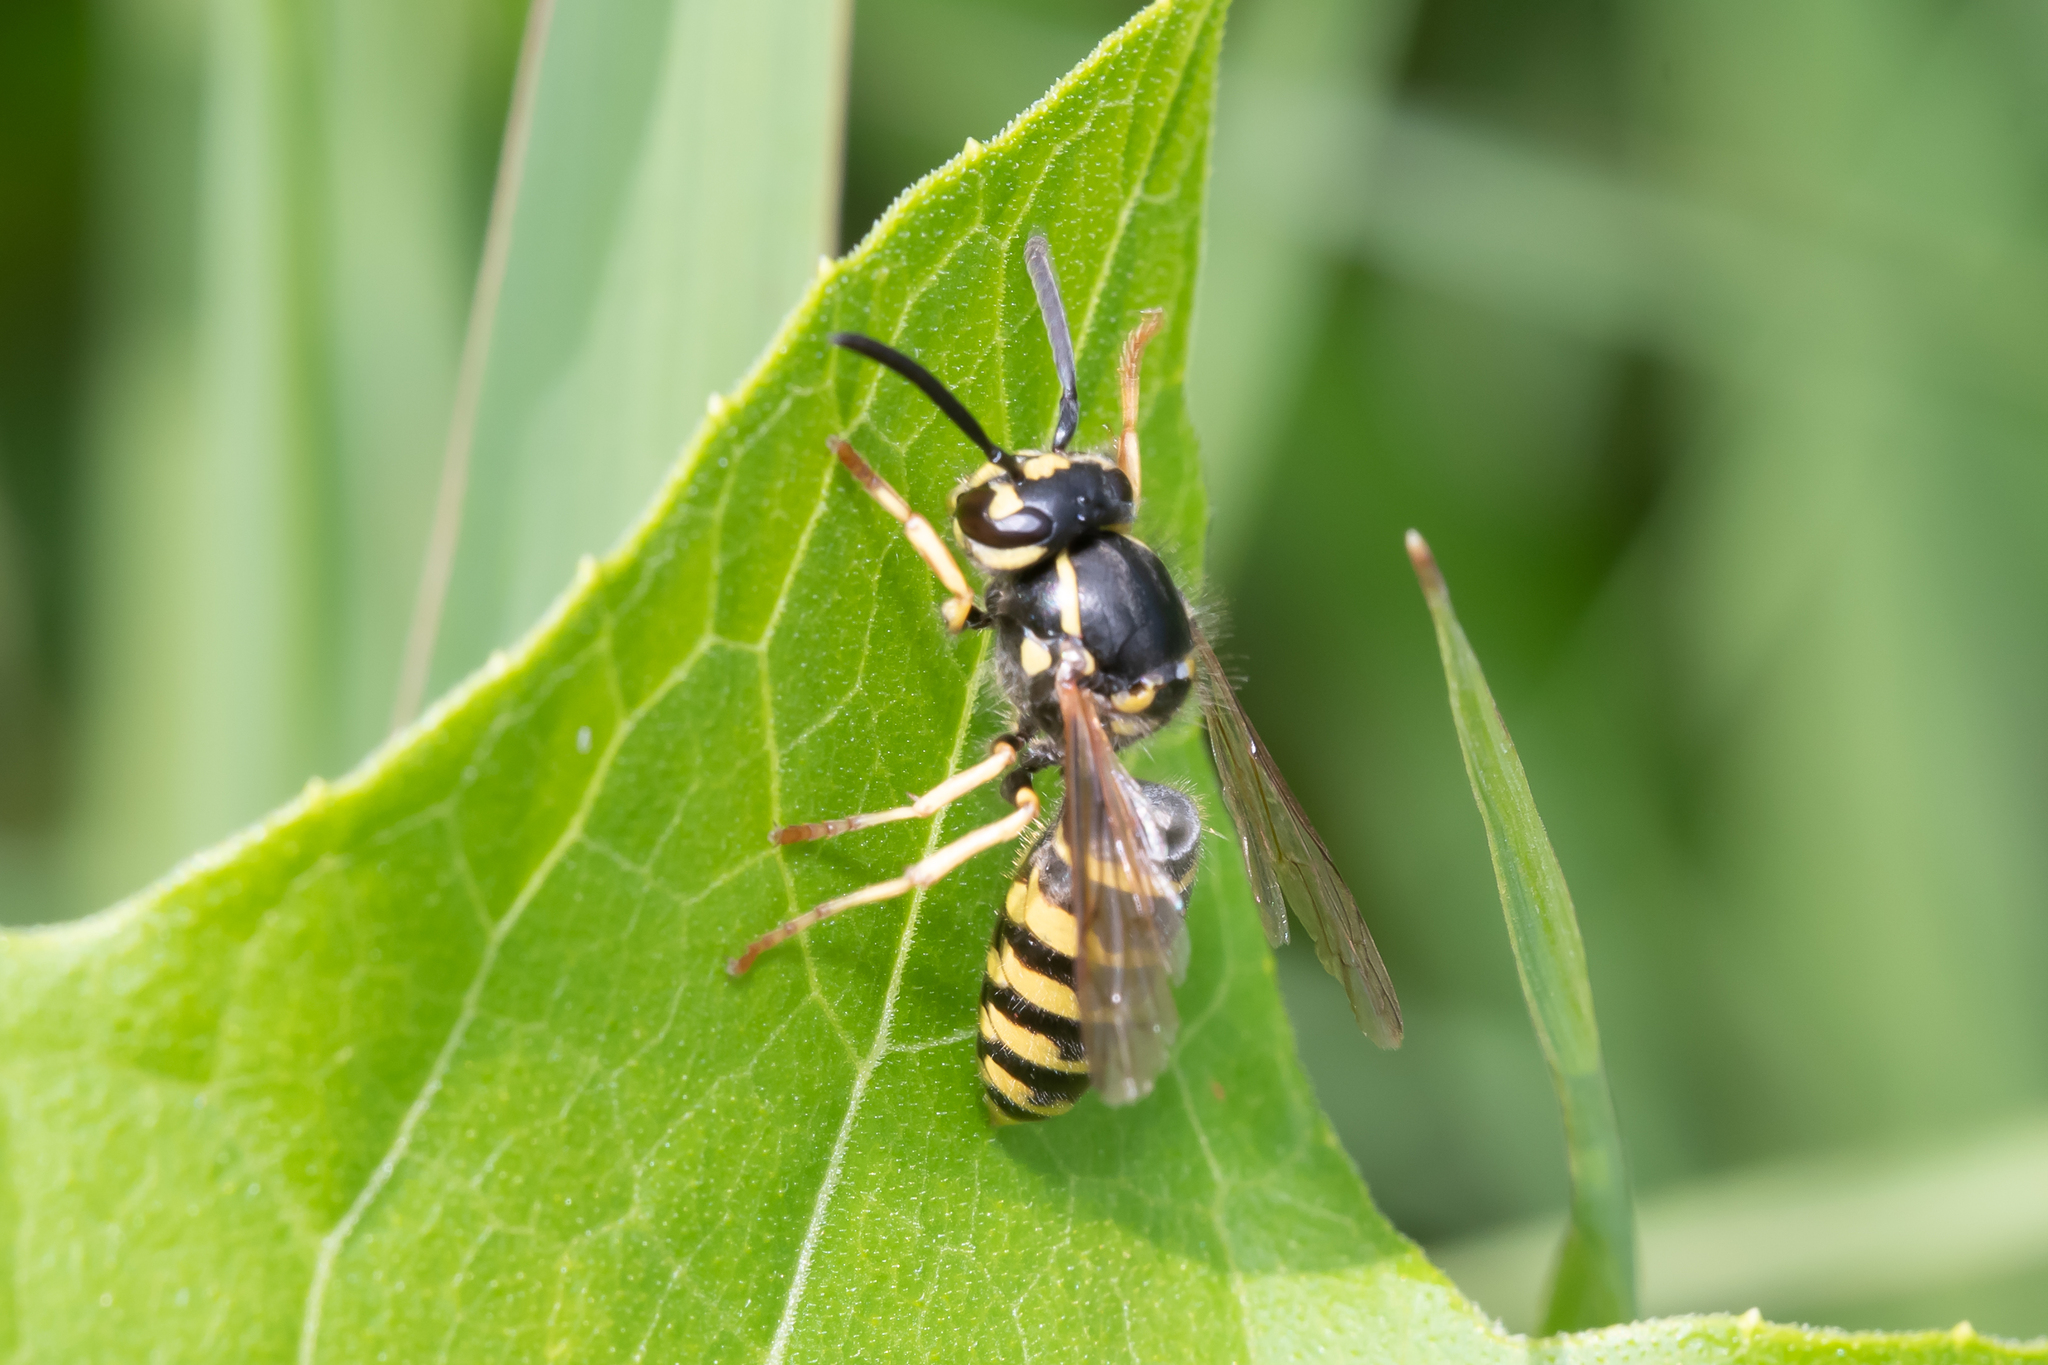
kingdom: Animalia
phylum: Arthropoda
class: Insecta
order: Hymenoptera
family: Vespidae
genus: Vespula
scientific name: Vespula vulgaris
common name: Common wasp
